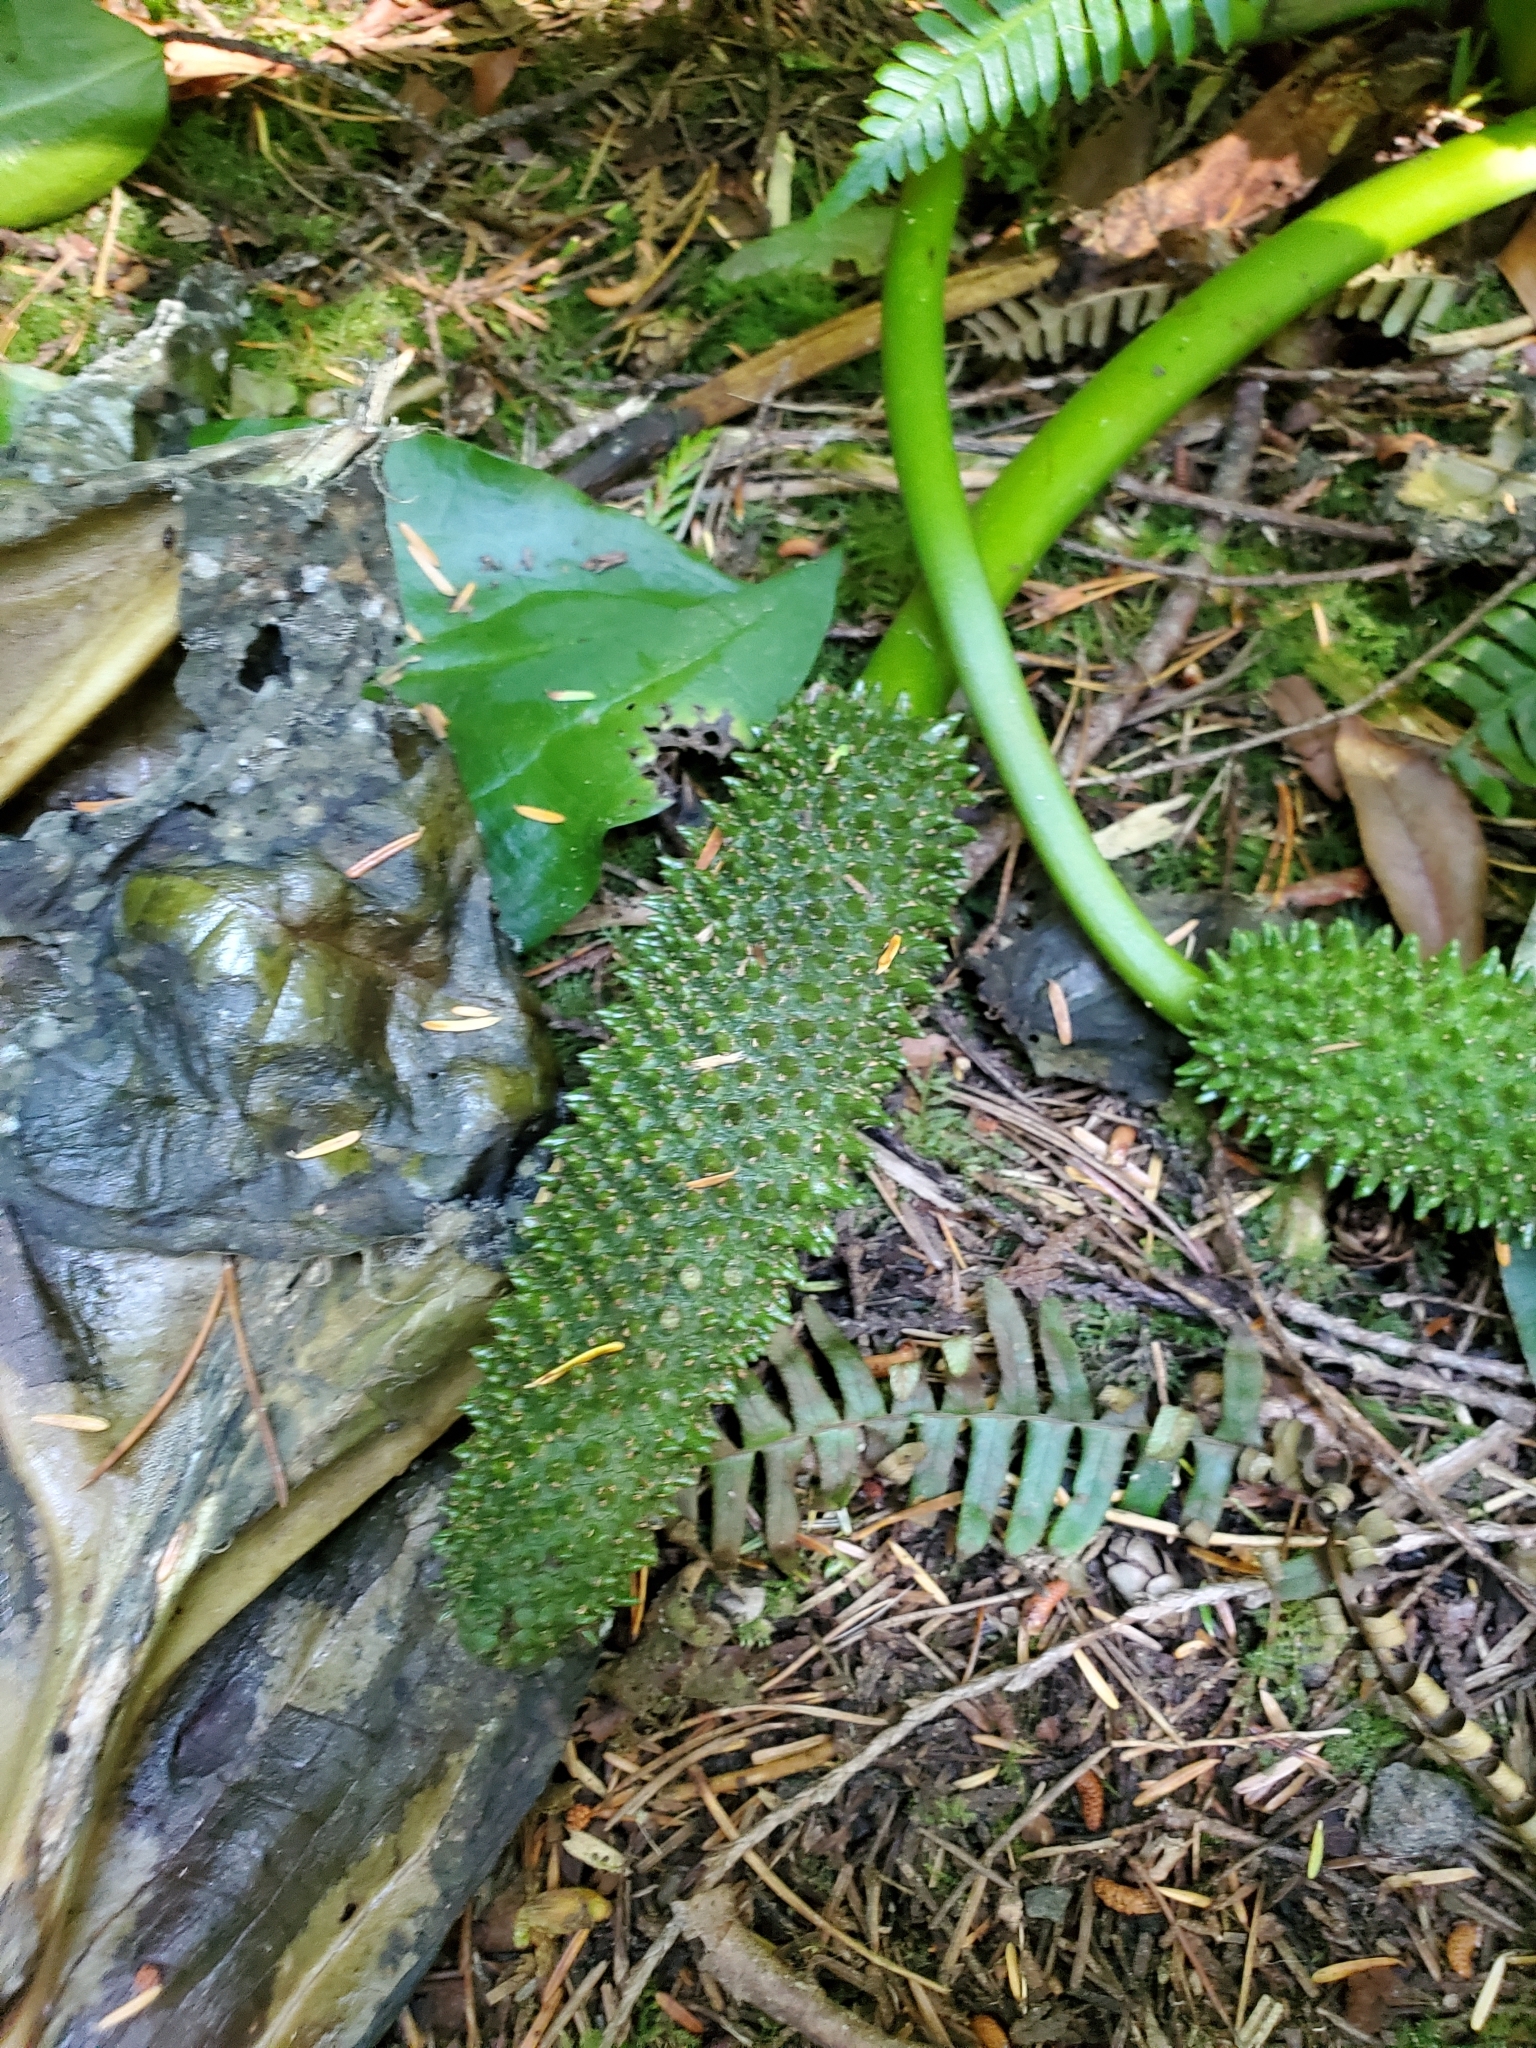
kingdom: Plantae
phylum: Tracheophyta
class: Liliopsida
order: Alismatales
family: Araceae
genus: Lysichiton
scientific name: Lysichiton americanus
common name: American skunk cabbage
